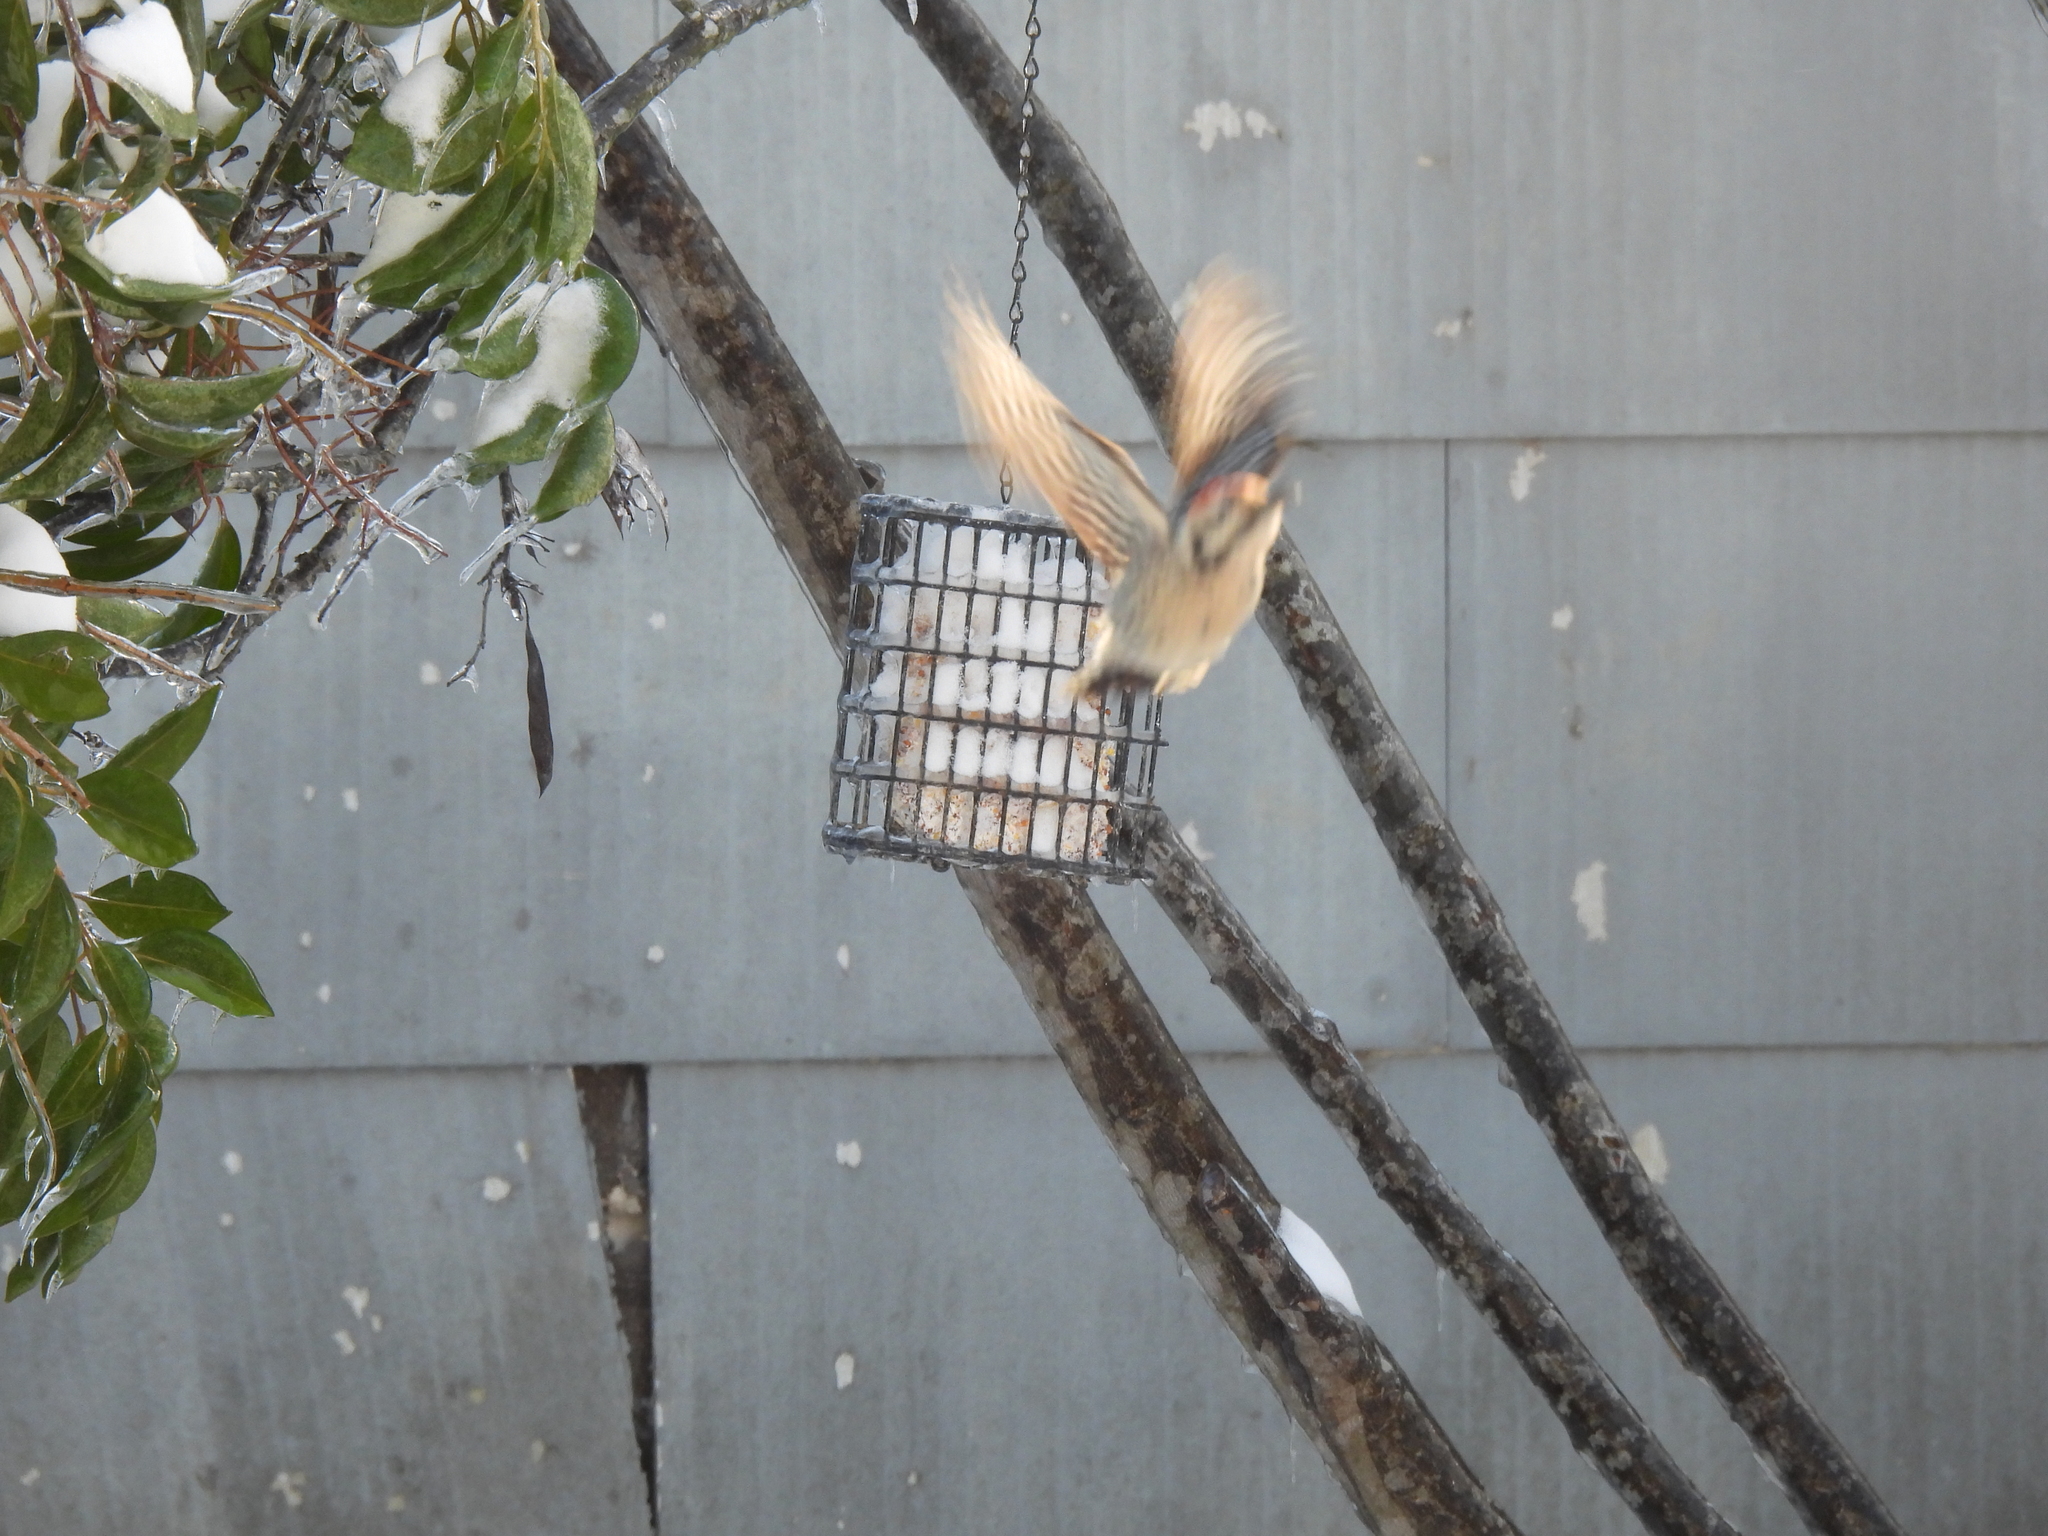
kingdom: Animalia
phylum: Chordata
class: Aves
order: Piciformes
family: Picidae
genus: Dryobates
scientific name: Dryobates scalaris
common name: Ladder-backed woodpecker
